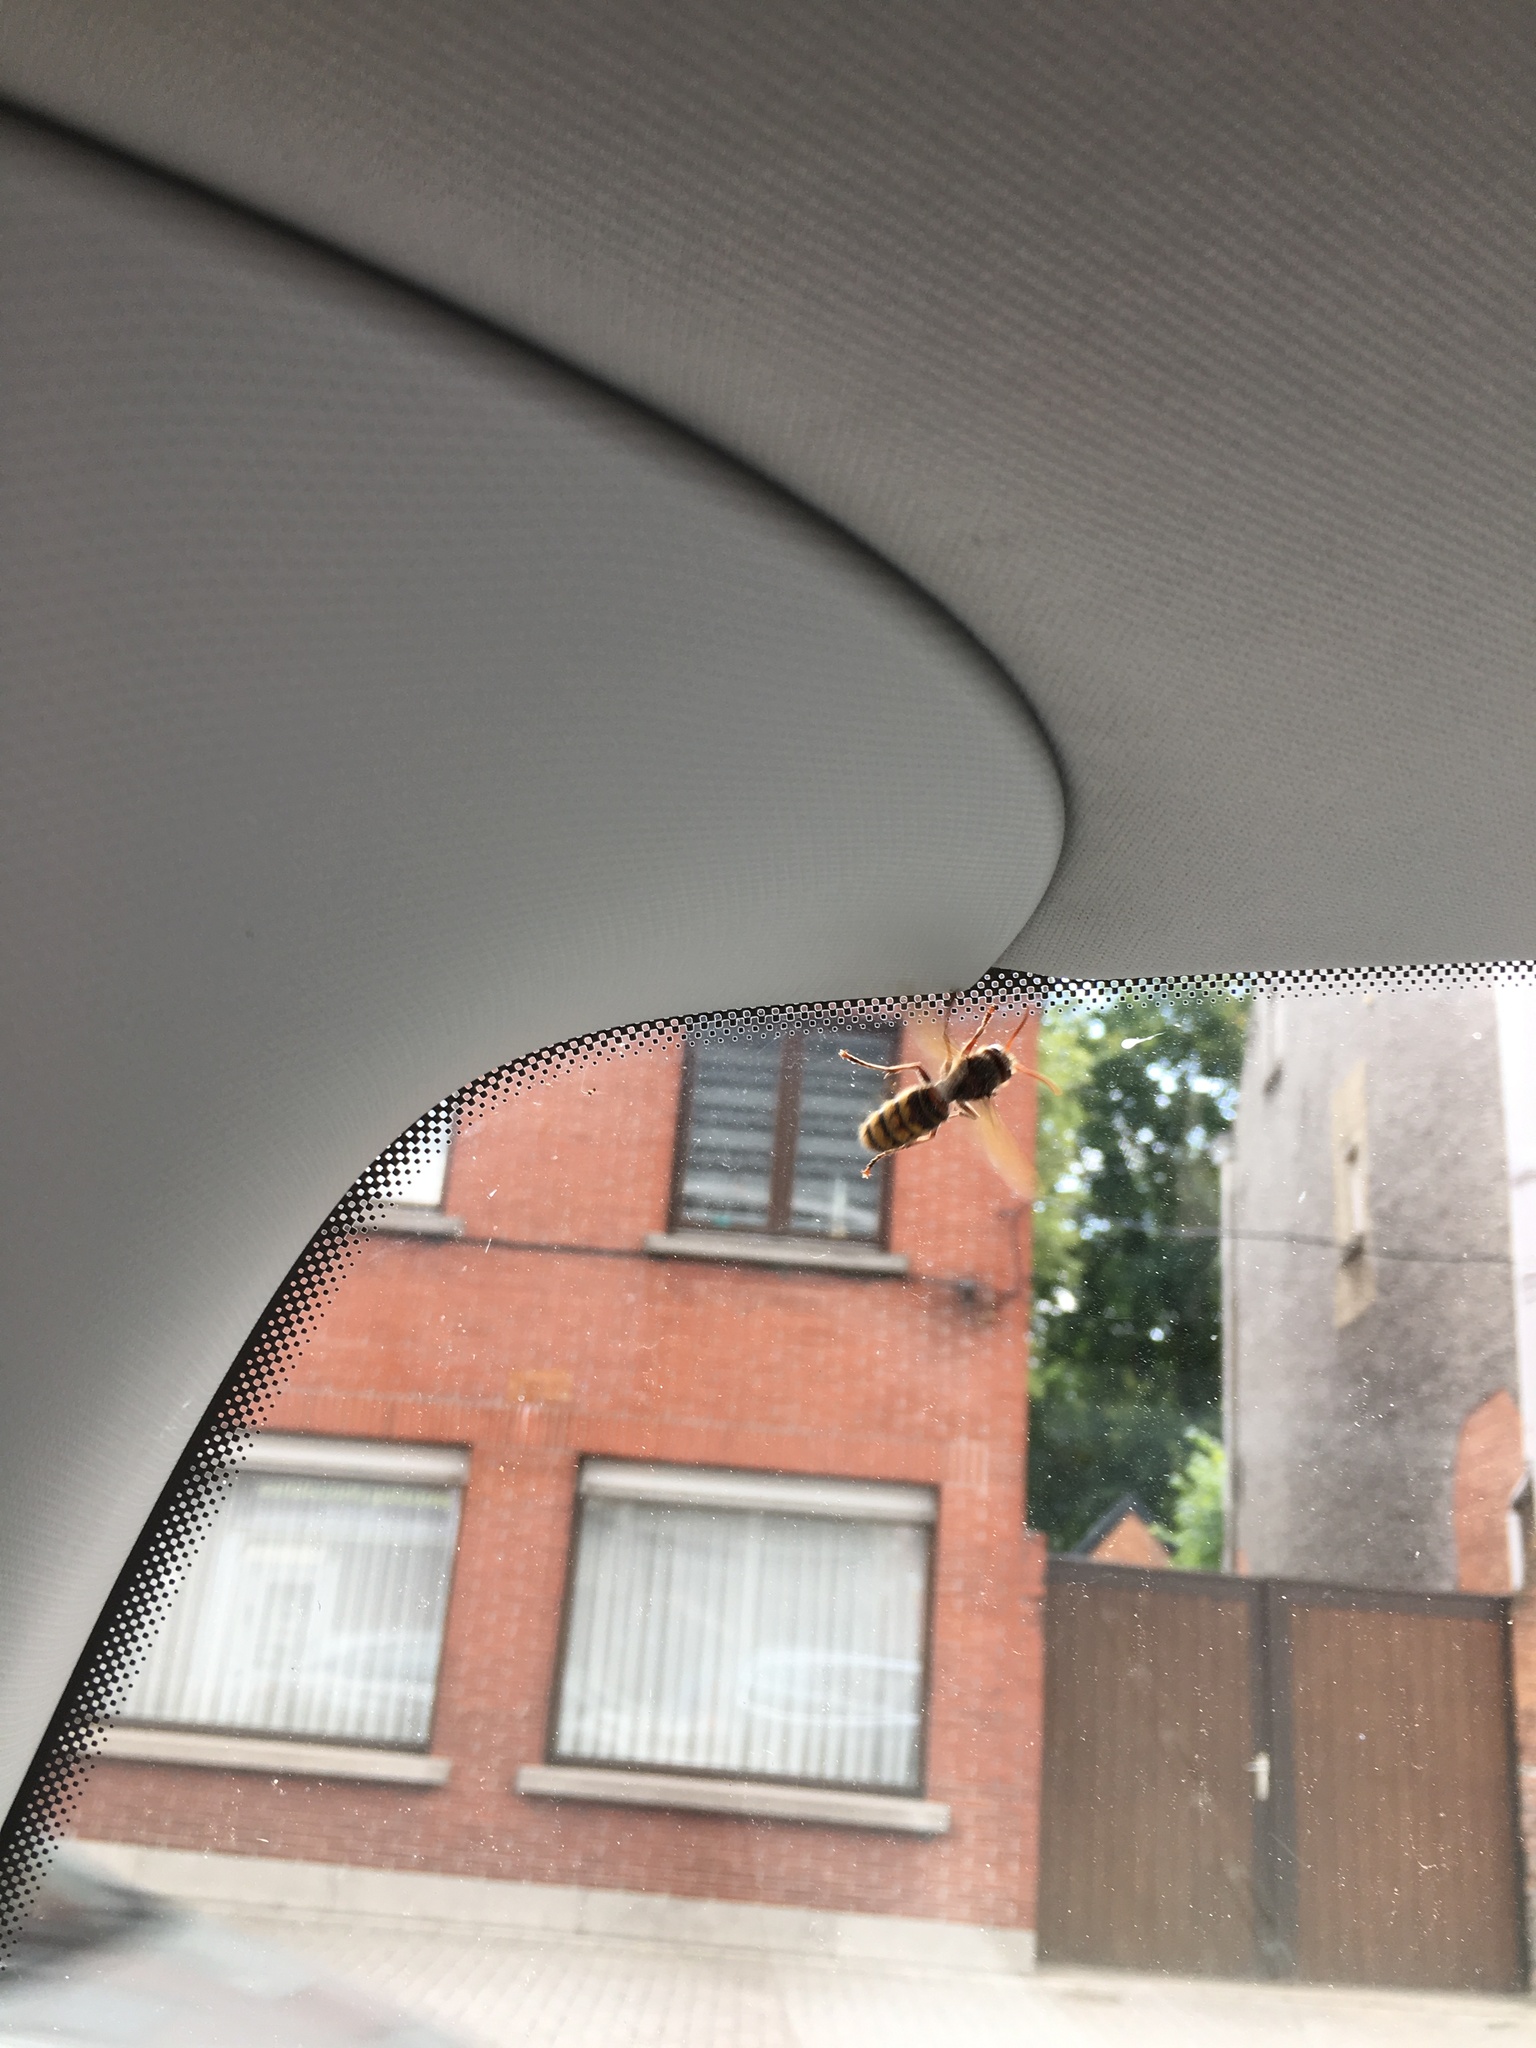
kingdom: Animalia
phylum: Arthropoda
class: Insecta
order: Hymenoptera
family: Vespidae
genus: Vespa
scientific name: Vespa crabro
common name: Hornet
